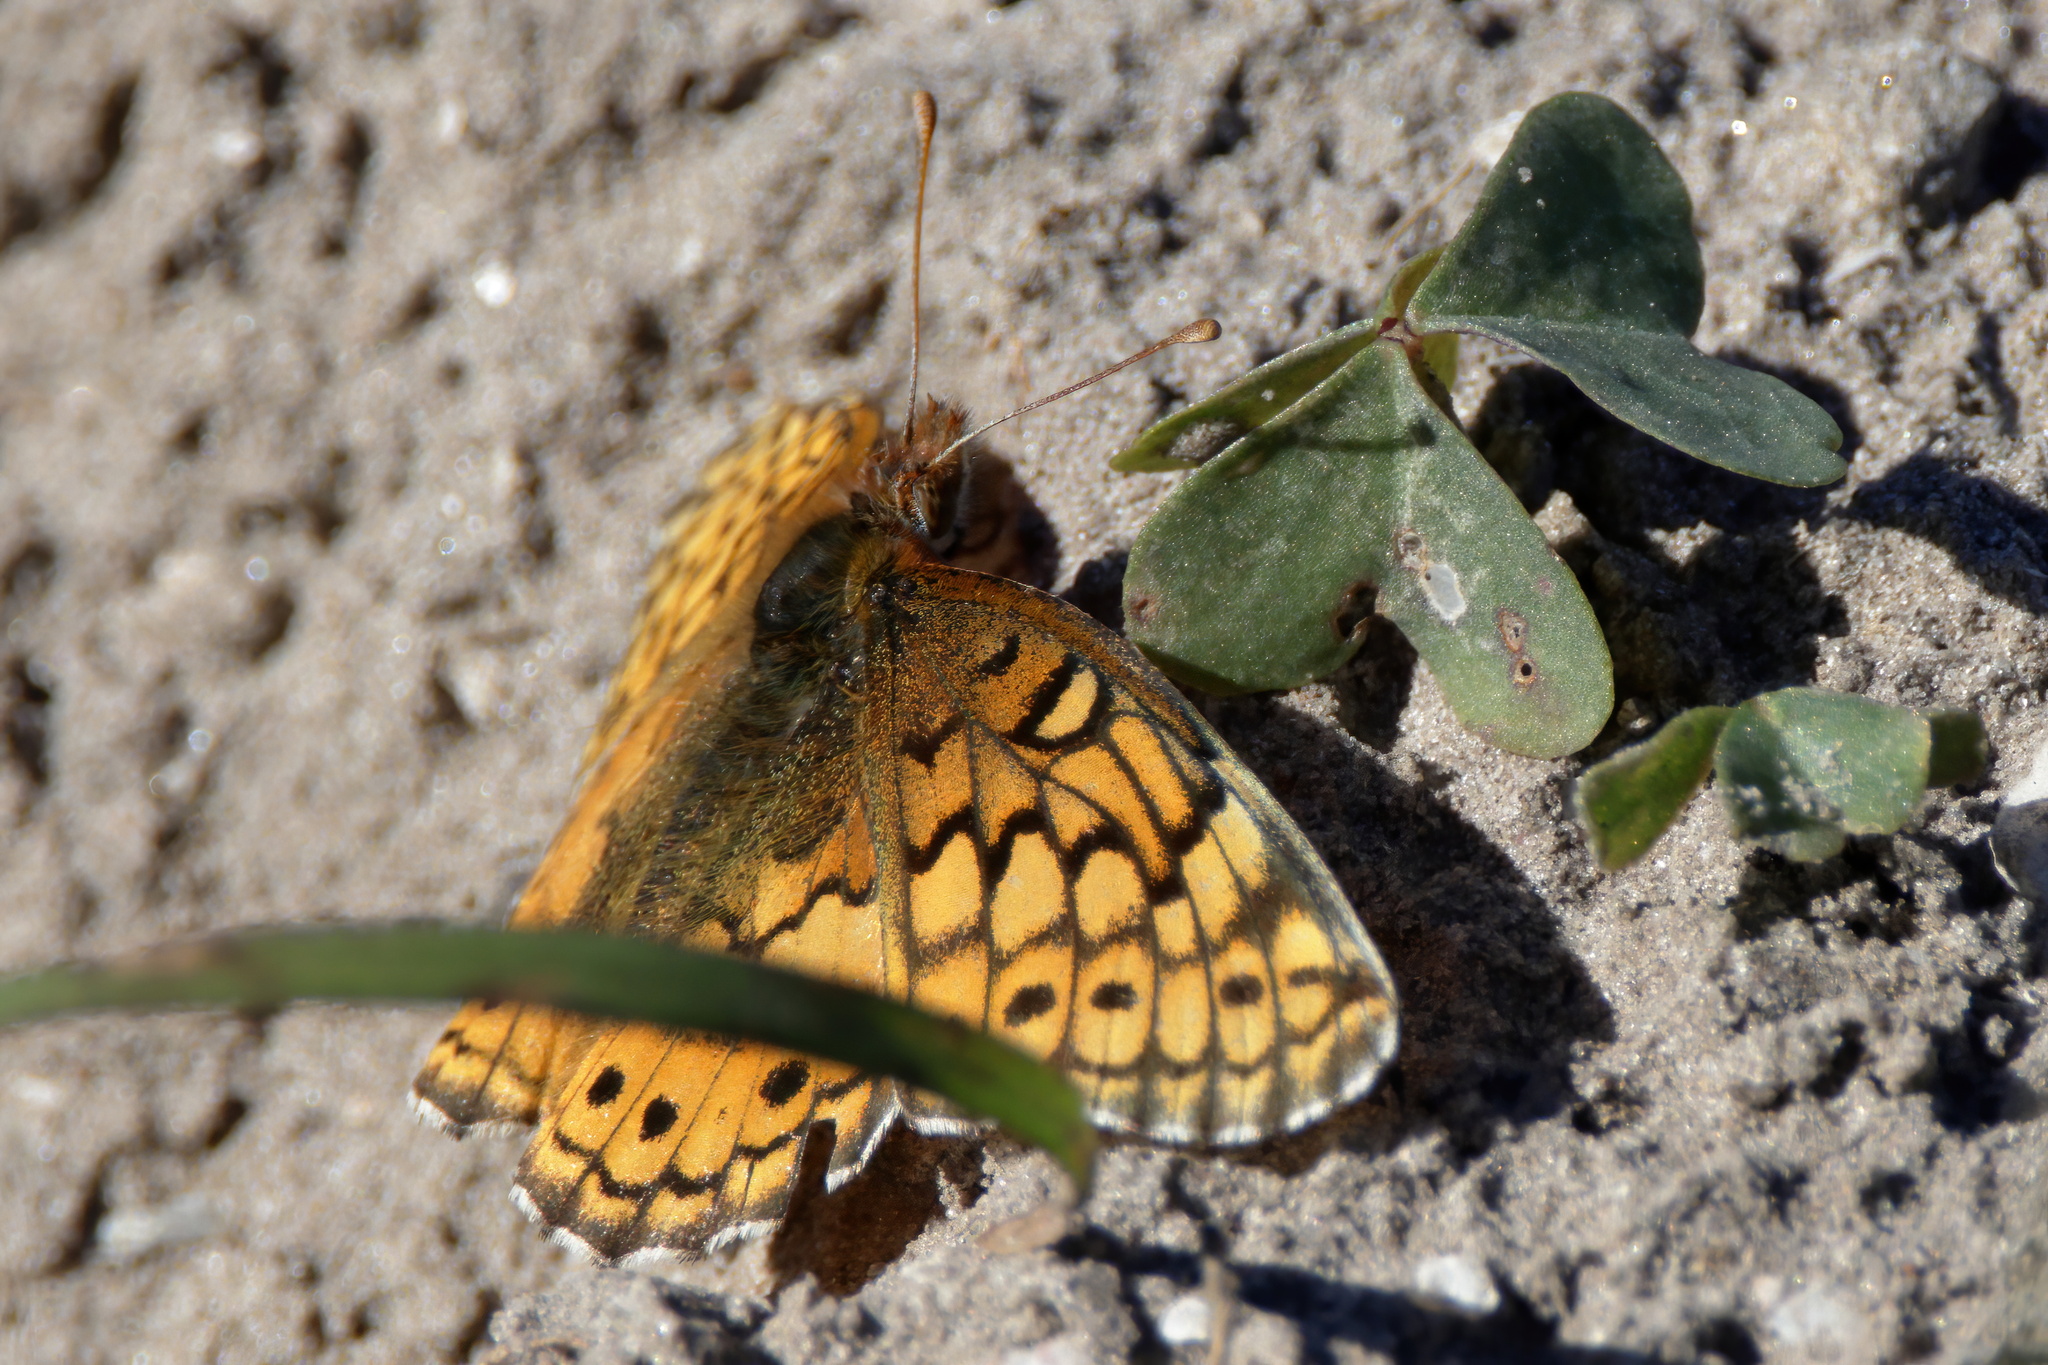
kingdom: Animalia
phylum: Arthropoda
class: Insecta
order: Lepidoptera
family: Nymphalidae
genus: Euptoieta
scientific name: Euptoieta claudia
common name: Variegated fritillary
